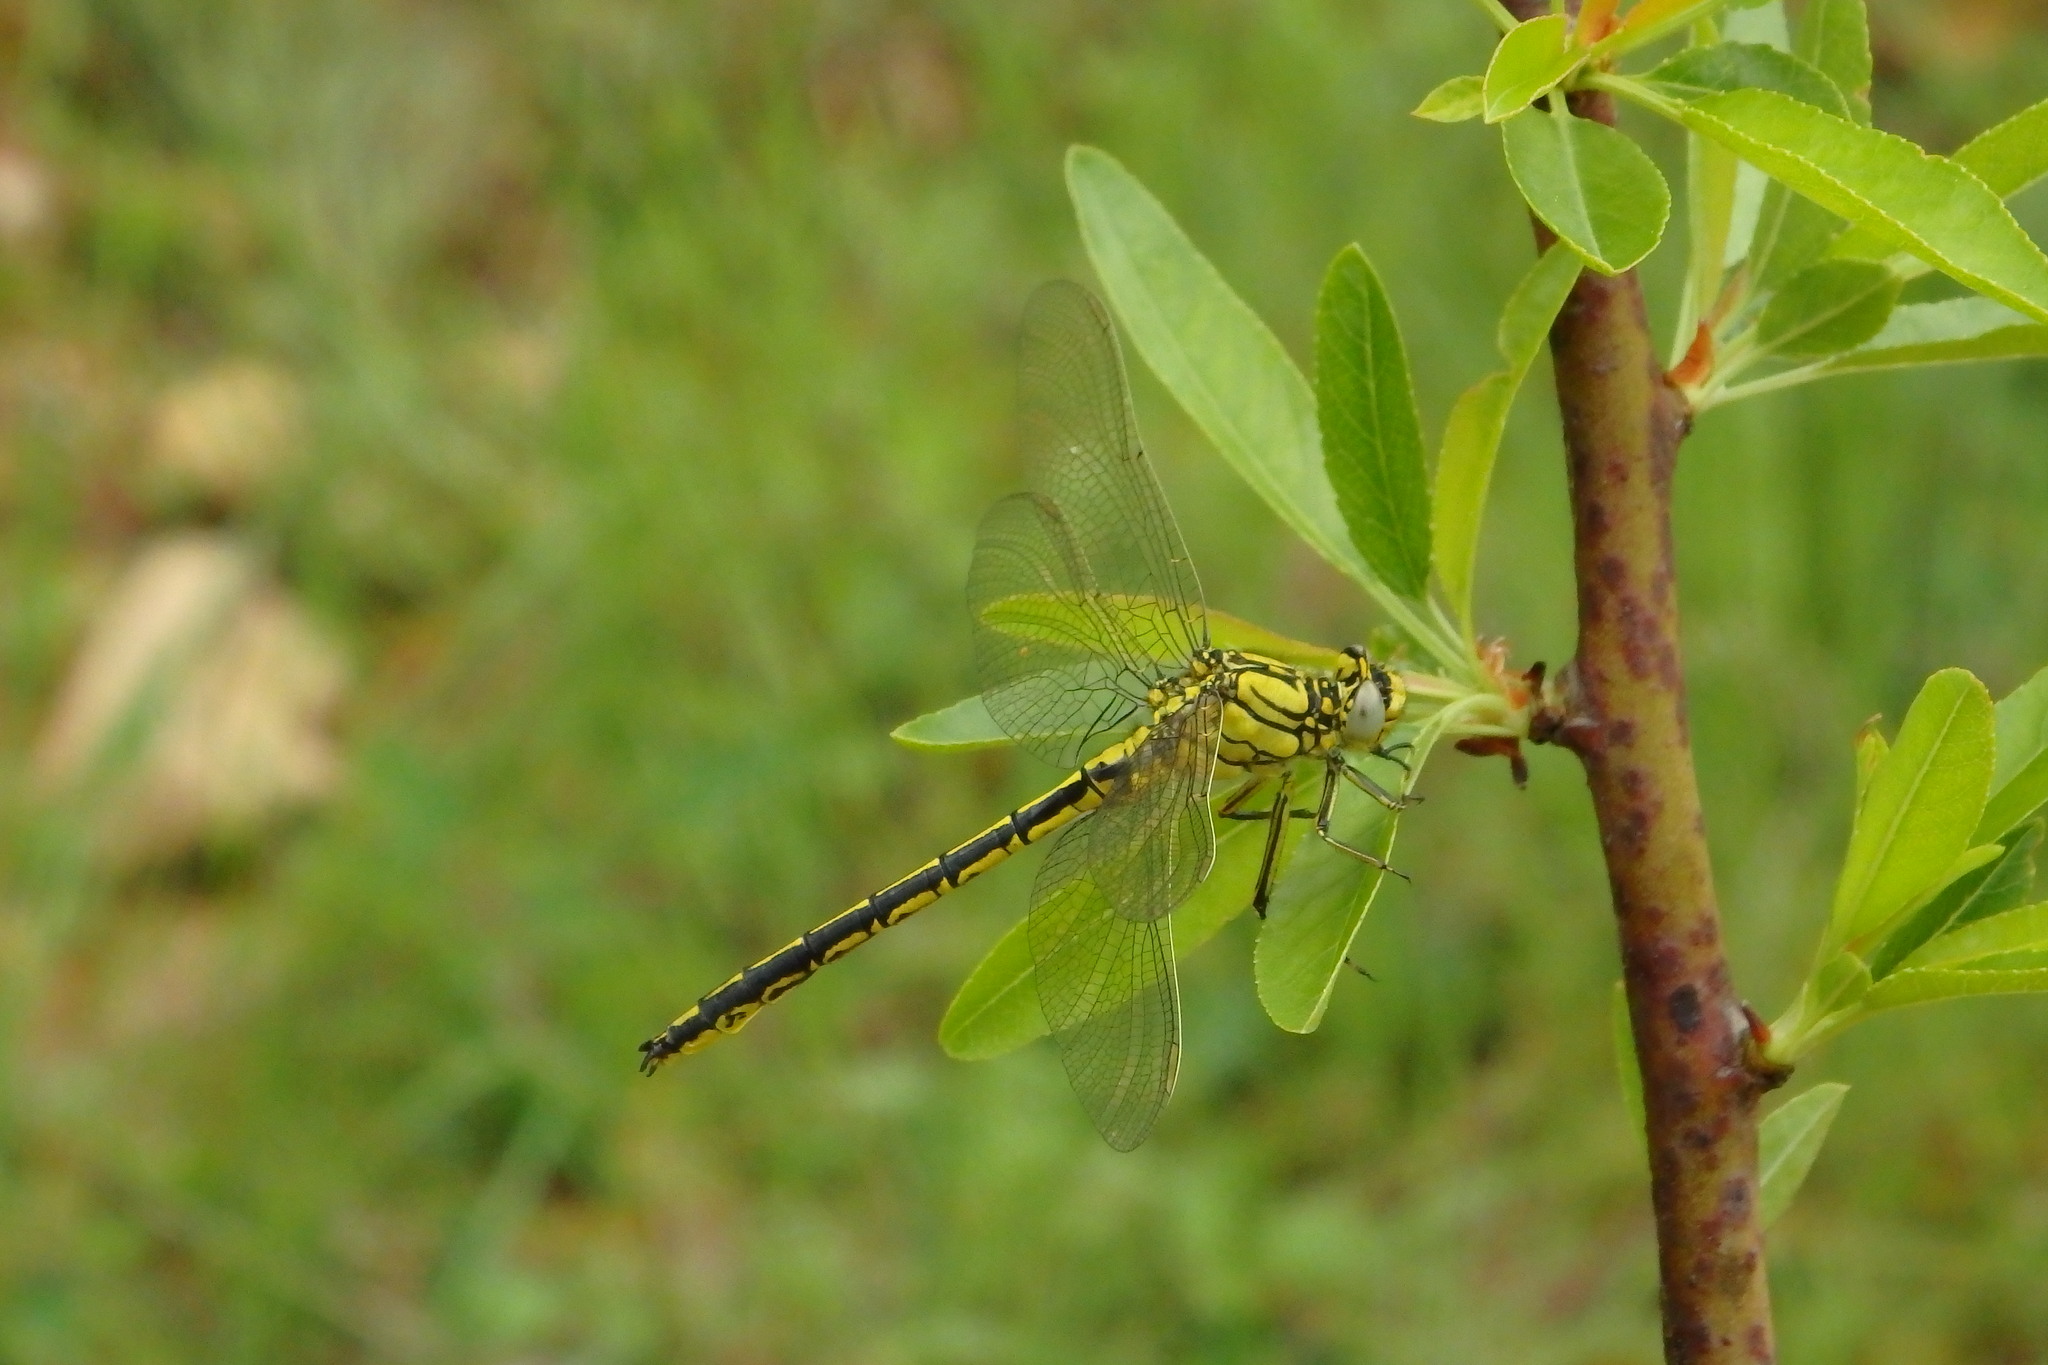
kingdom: Animalia
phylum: Arthropoda
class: Insecta
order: Odonata
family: Gomphidae
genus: Gomphus
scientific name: Gomphus pulchellus
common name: Western clubtail
